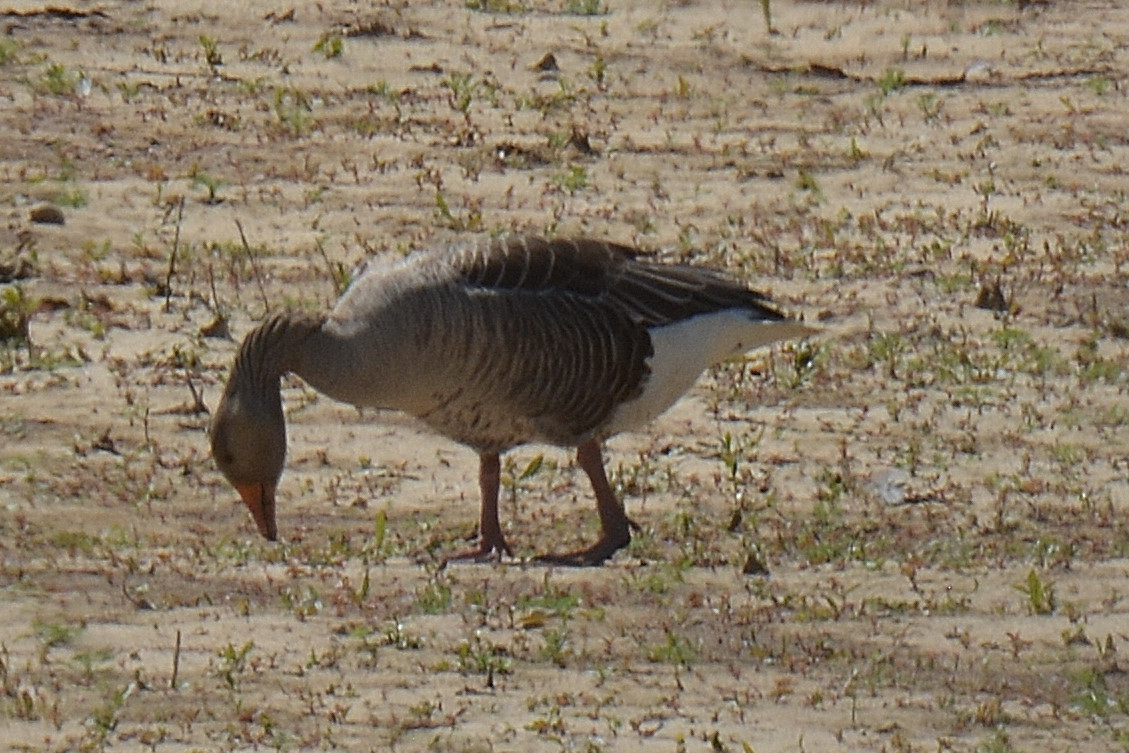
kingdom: Animalia
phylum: Chordata
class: Aves
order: Anseriformes
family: Anatidae
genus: Anser
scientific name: Anser anser
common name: Greylag goose
